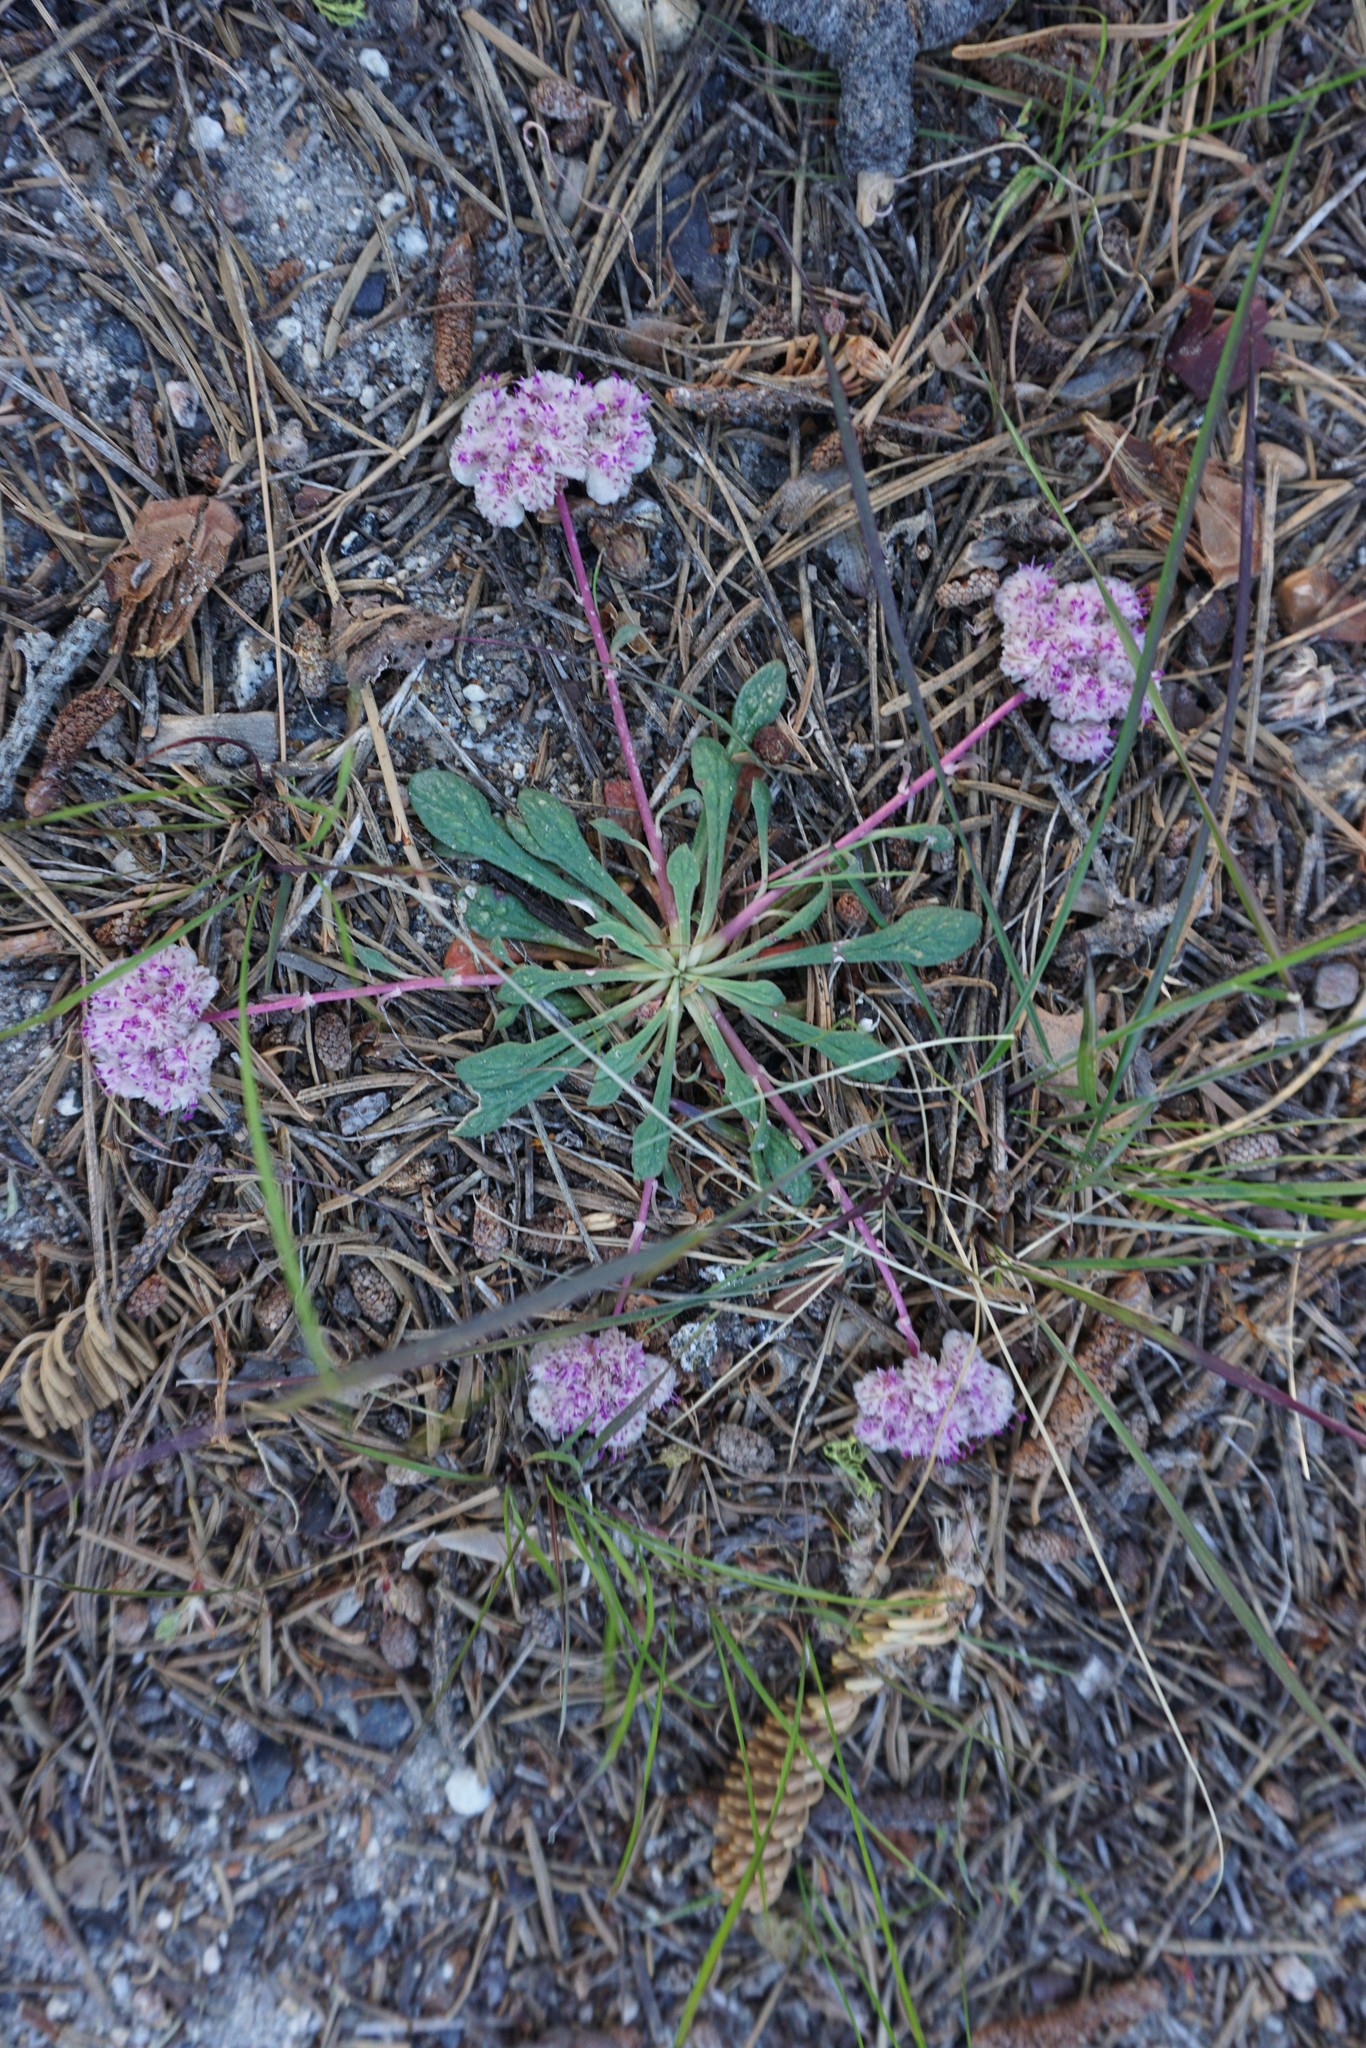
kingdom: Plantae
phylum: Tracheophyta
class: Magnoliopsida
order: Caryophyllales
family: Montiaceae
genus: Calyptridium
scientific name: Calyptridium monospermum
